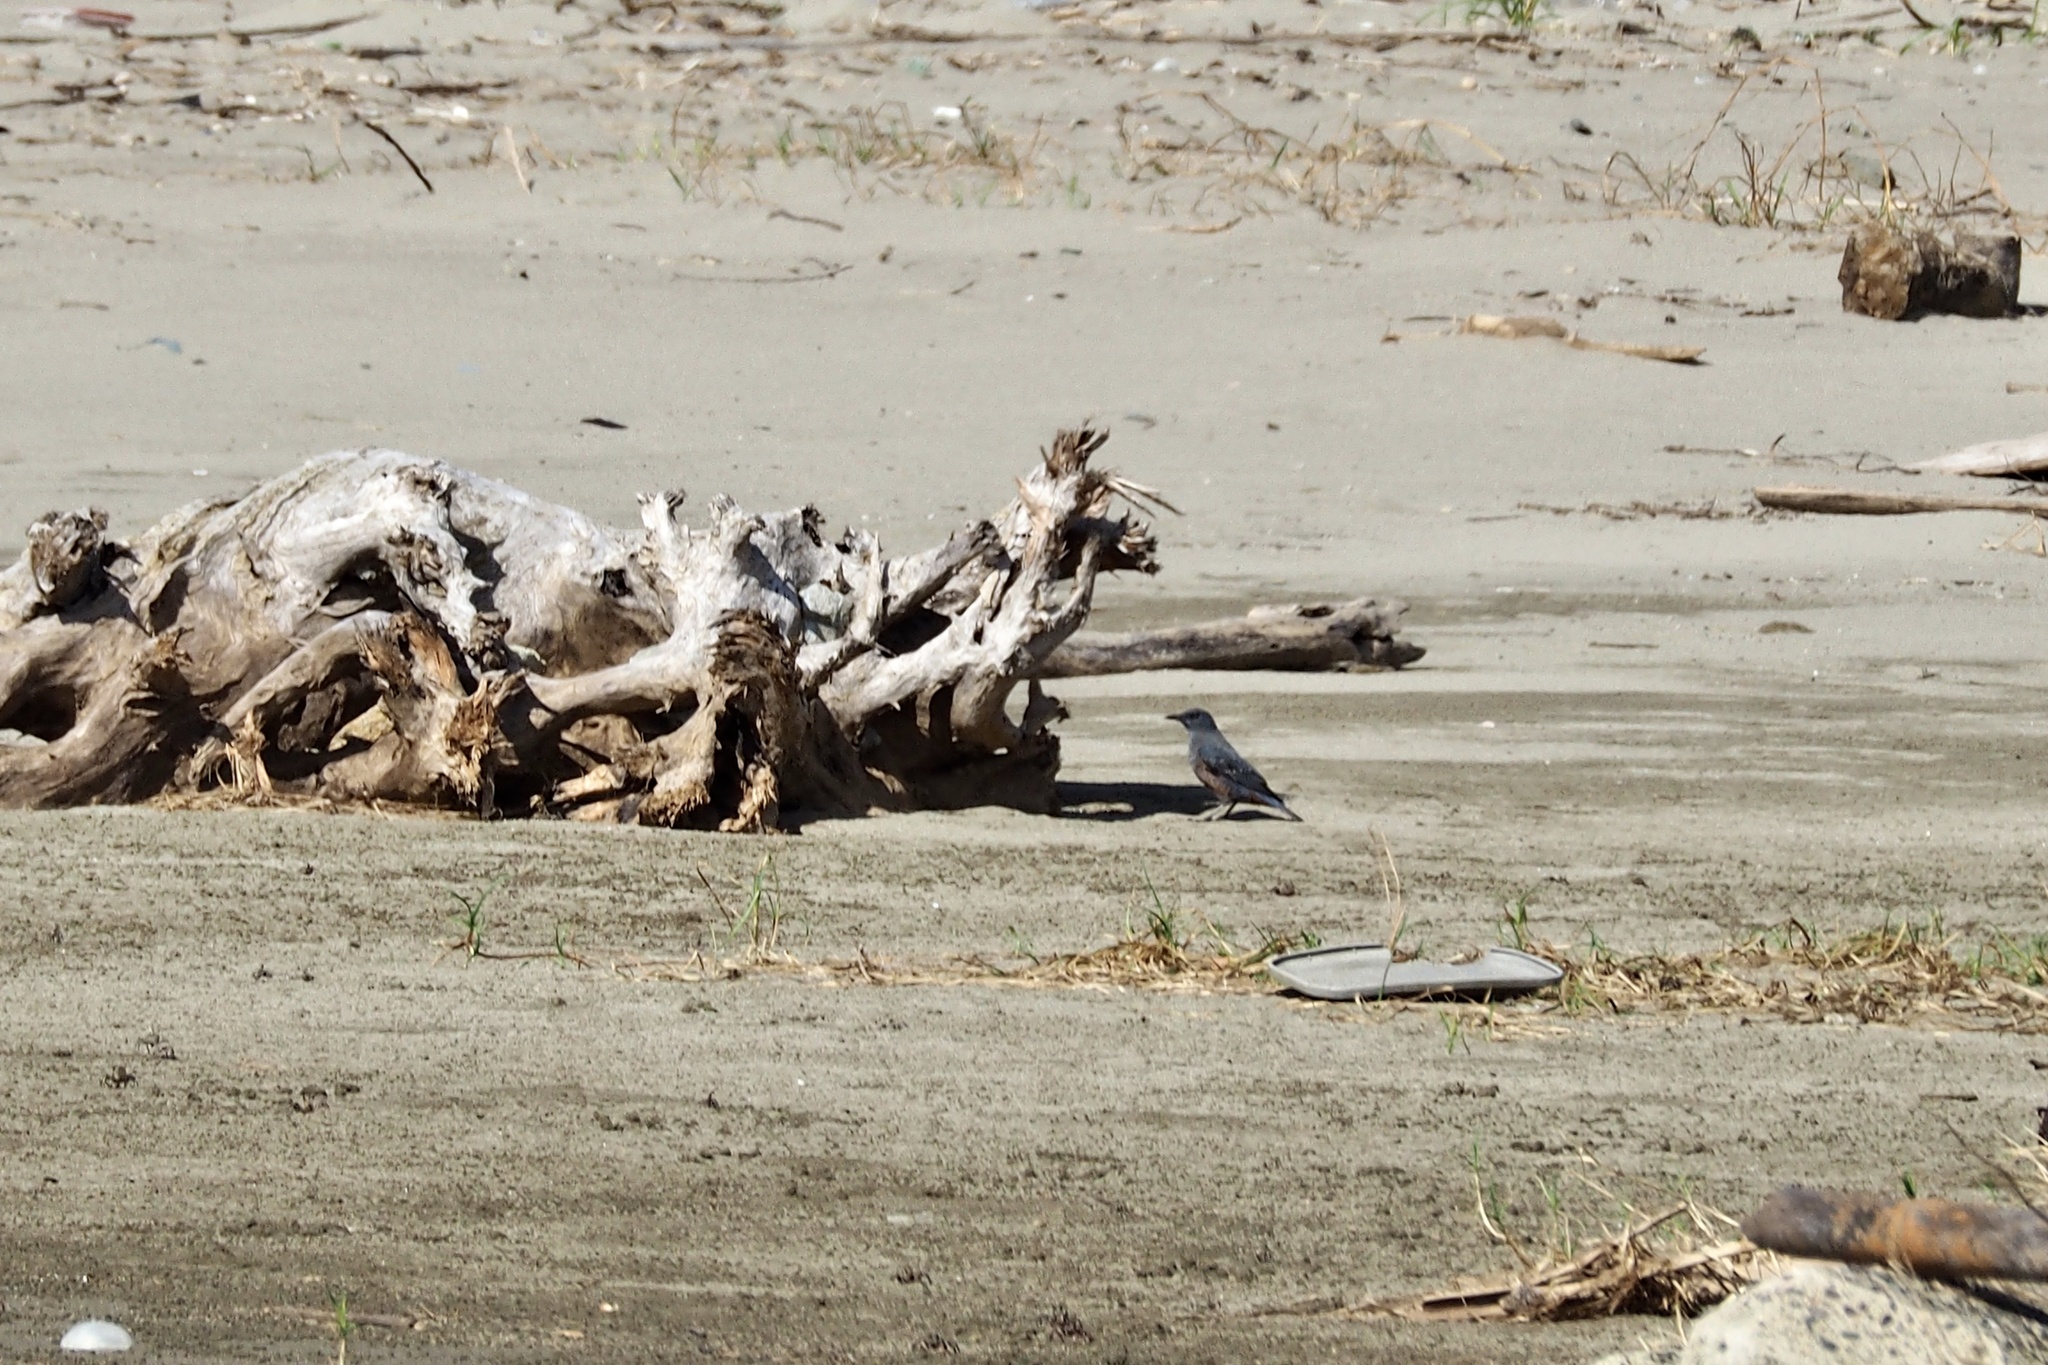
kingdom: Animalia
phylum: Chordata
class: Aves
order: Passeriformes
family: Muscicapidae
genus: Monticola
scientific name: Monticola solitarius
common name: Blue rock thrush
